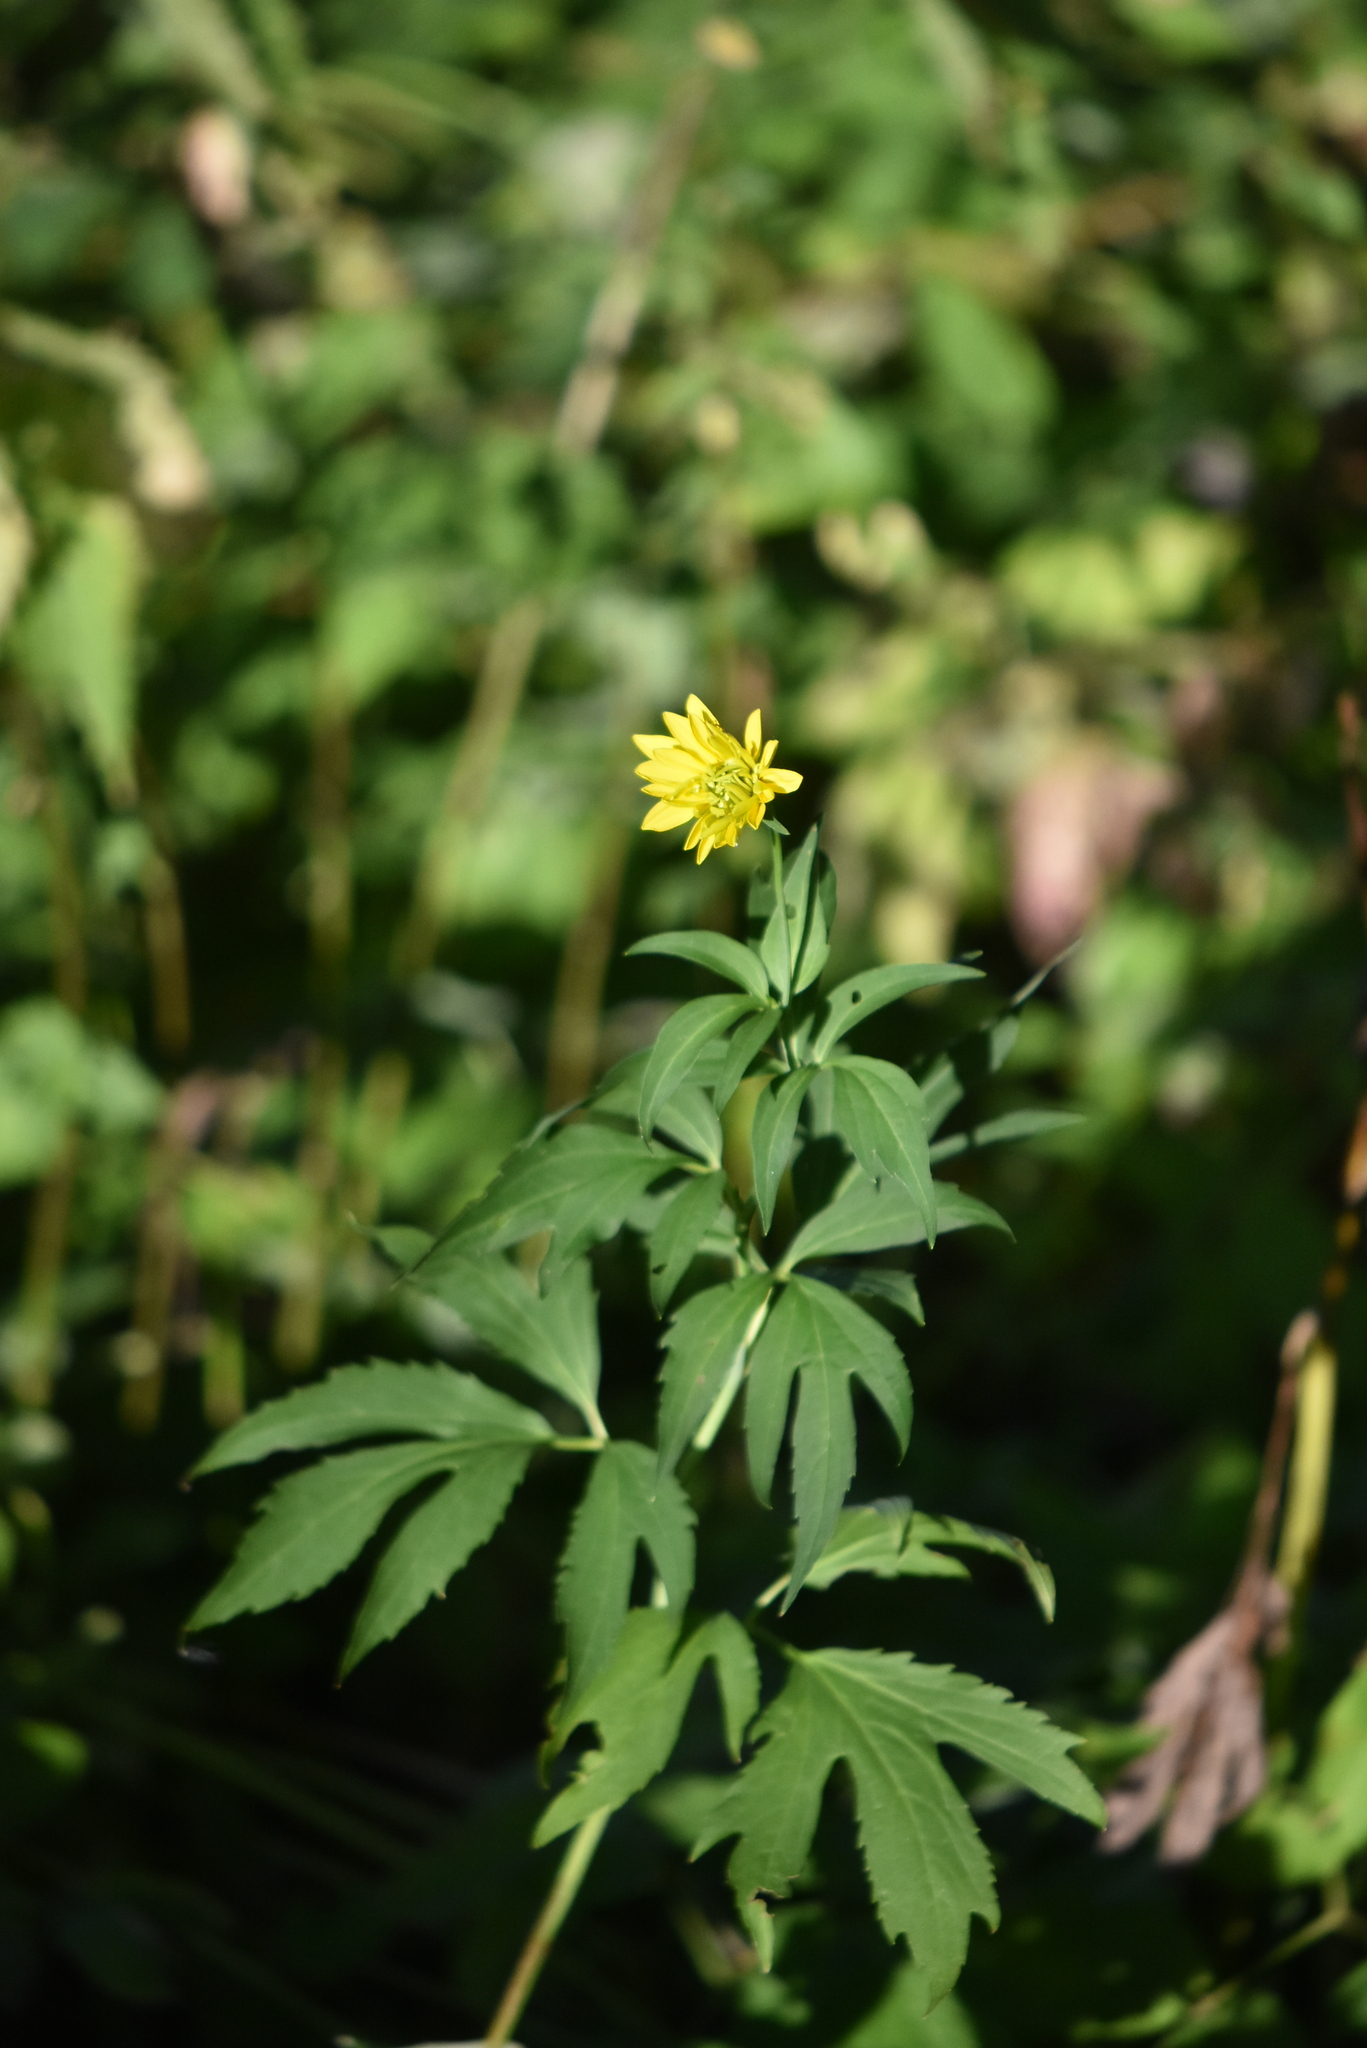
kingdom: Plantae
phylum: Tracheophyta
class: Magnoliopsida
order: Asterales
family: Asteraceae
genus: Rudbeckia
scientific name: Rudbeckia laciniata
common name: Coneflower
